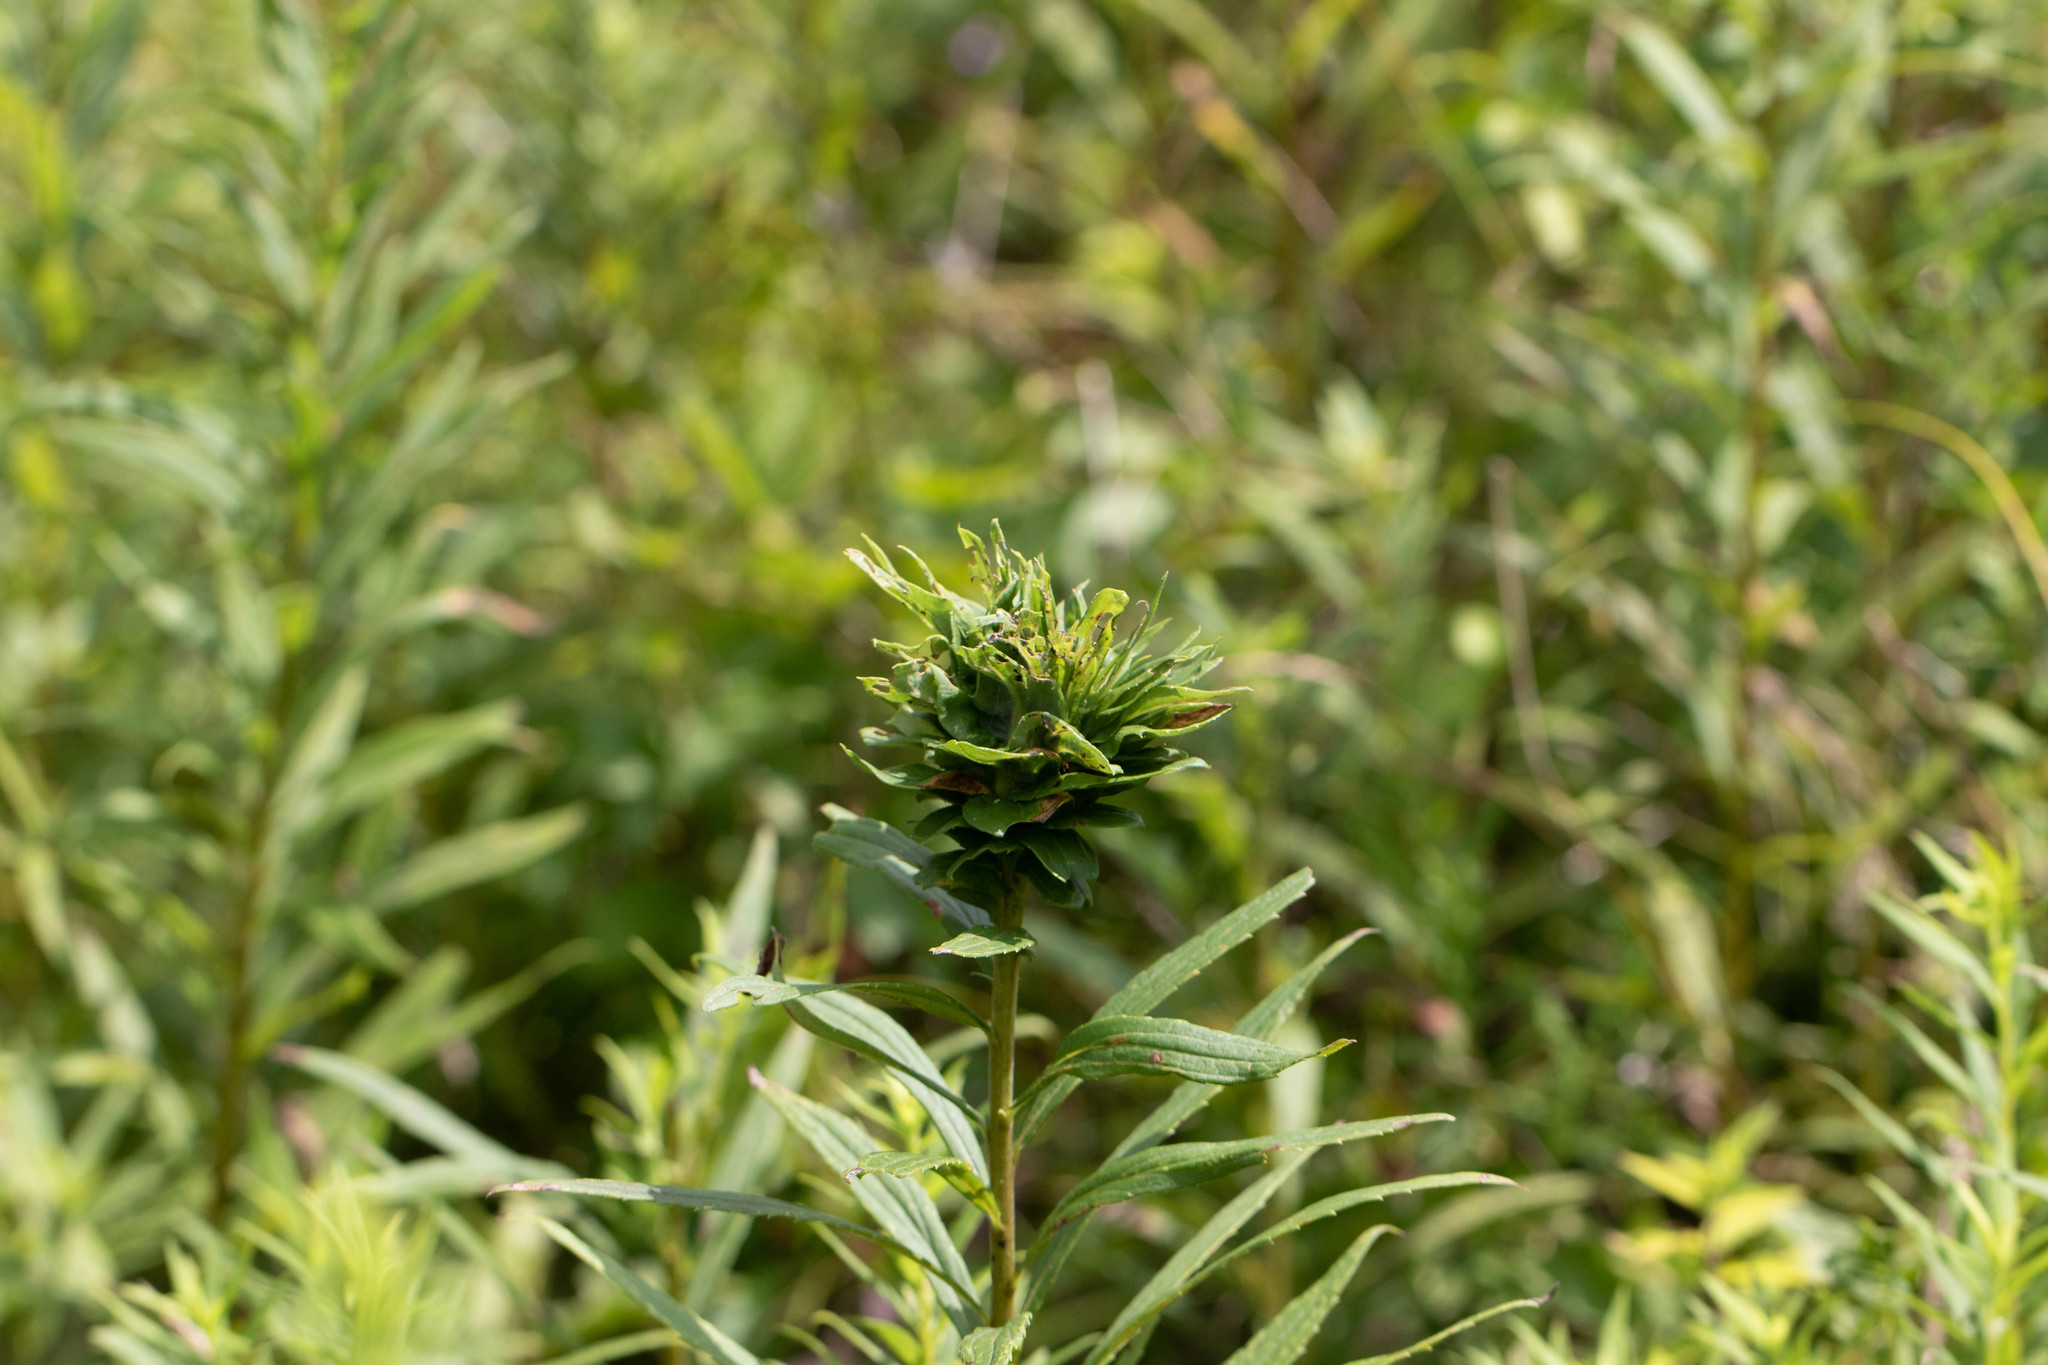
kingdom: Animalia
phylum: Arthropoda
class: Insecta
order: Diptera
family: Cecidomyiidae
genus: Rhopalomyia
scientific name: Rhopalomyia solidaginis
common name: Goldenrod bunch gall midge
